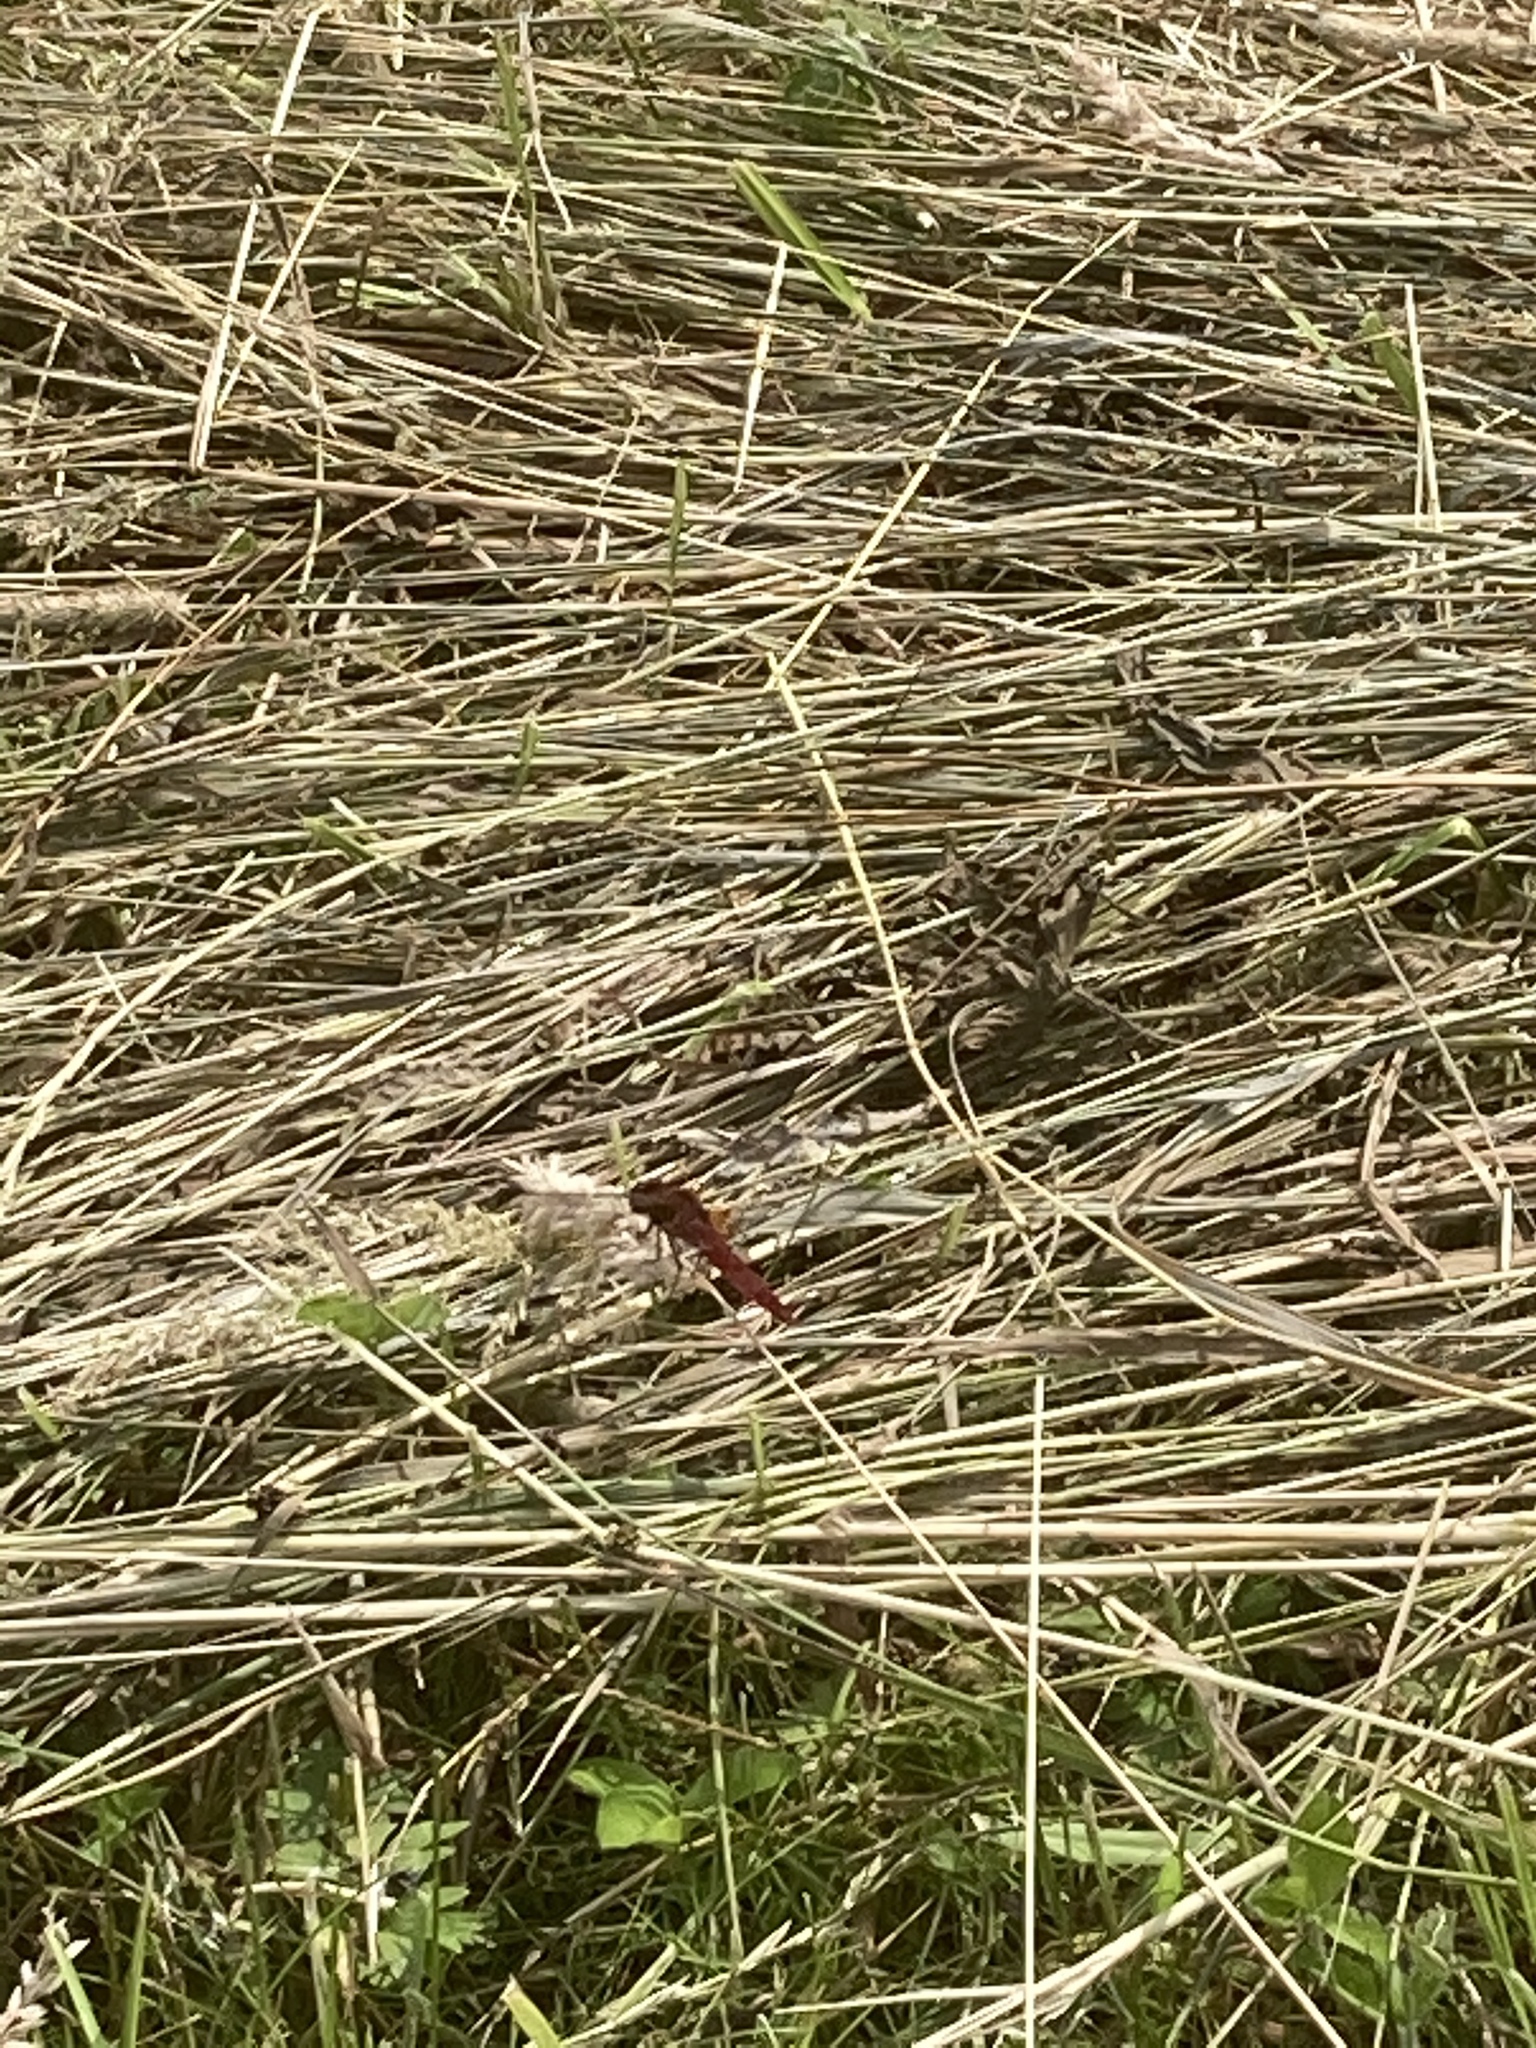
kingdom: Animalia
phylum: Arthropoda
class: Insecta
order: Odonata
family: Libellulidae
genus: Crocothemis
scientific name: Crocothemis erythraea
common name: Scarlet dragonfly
